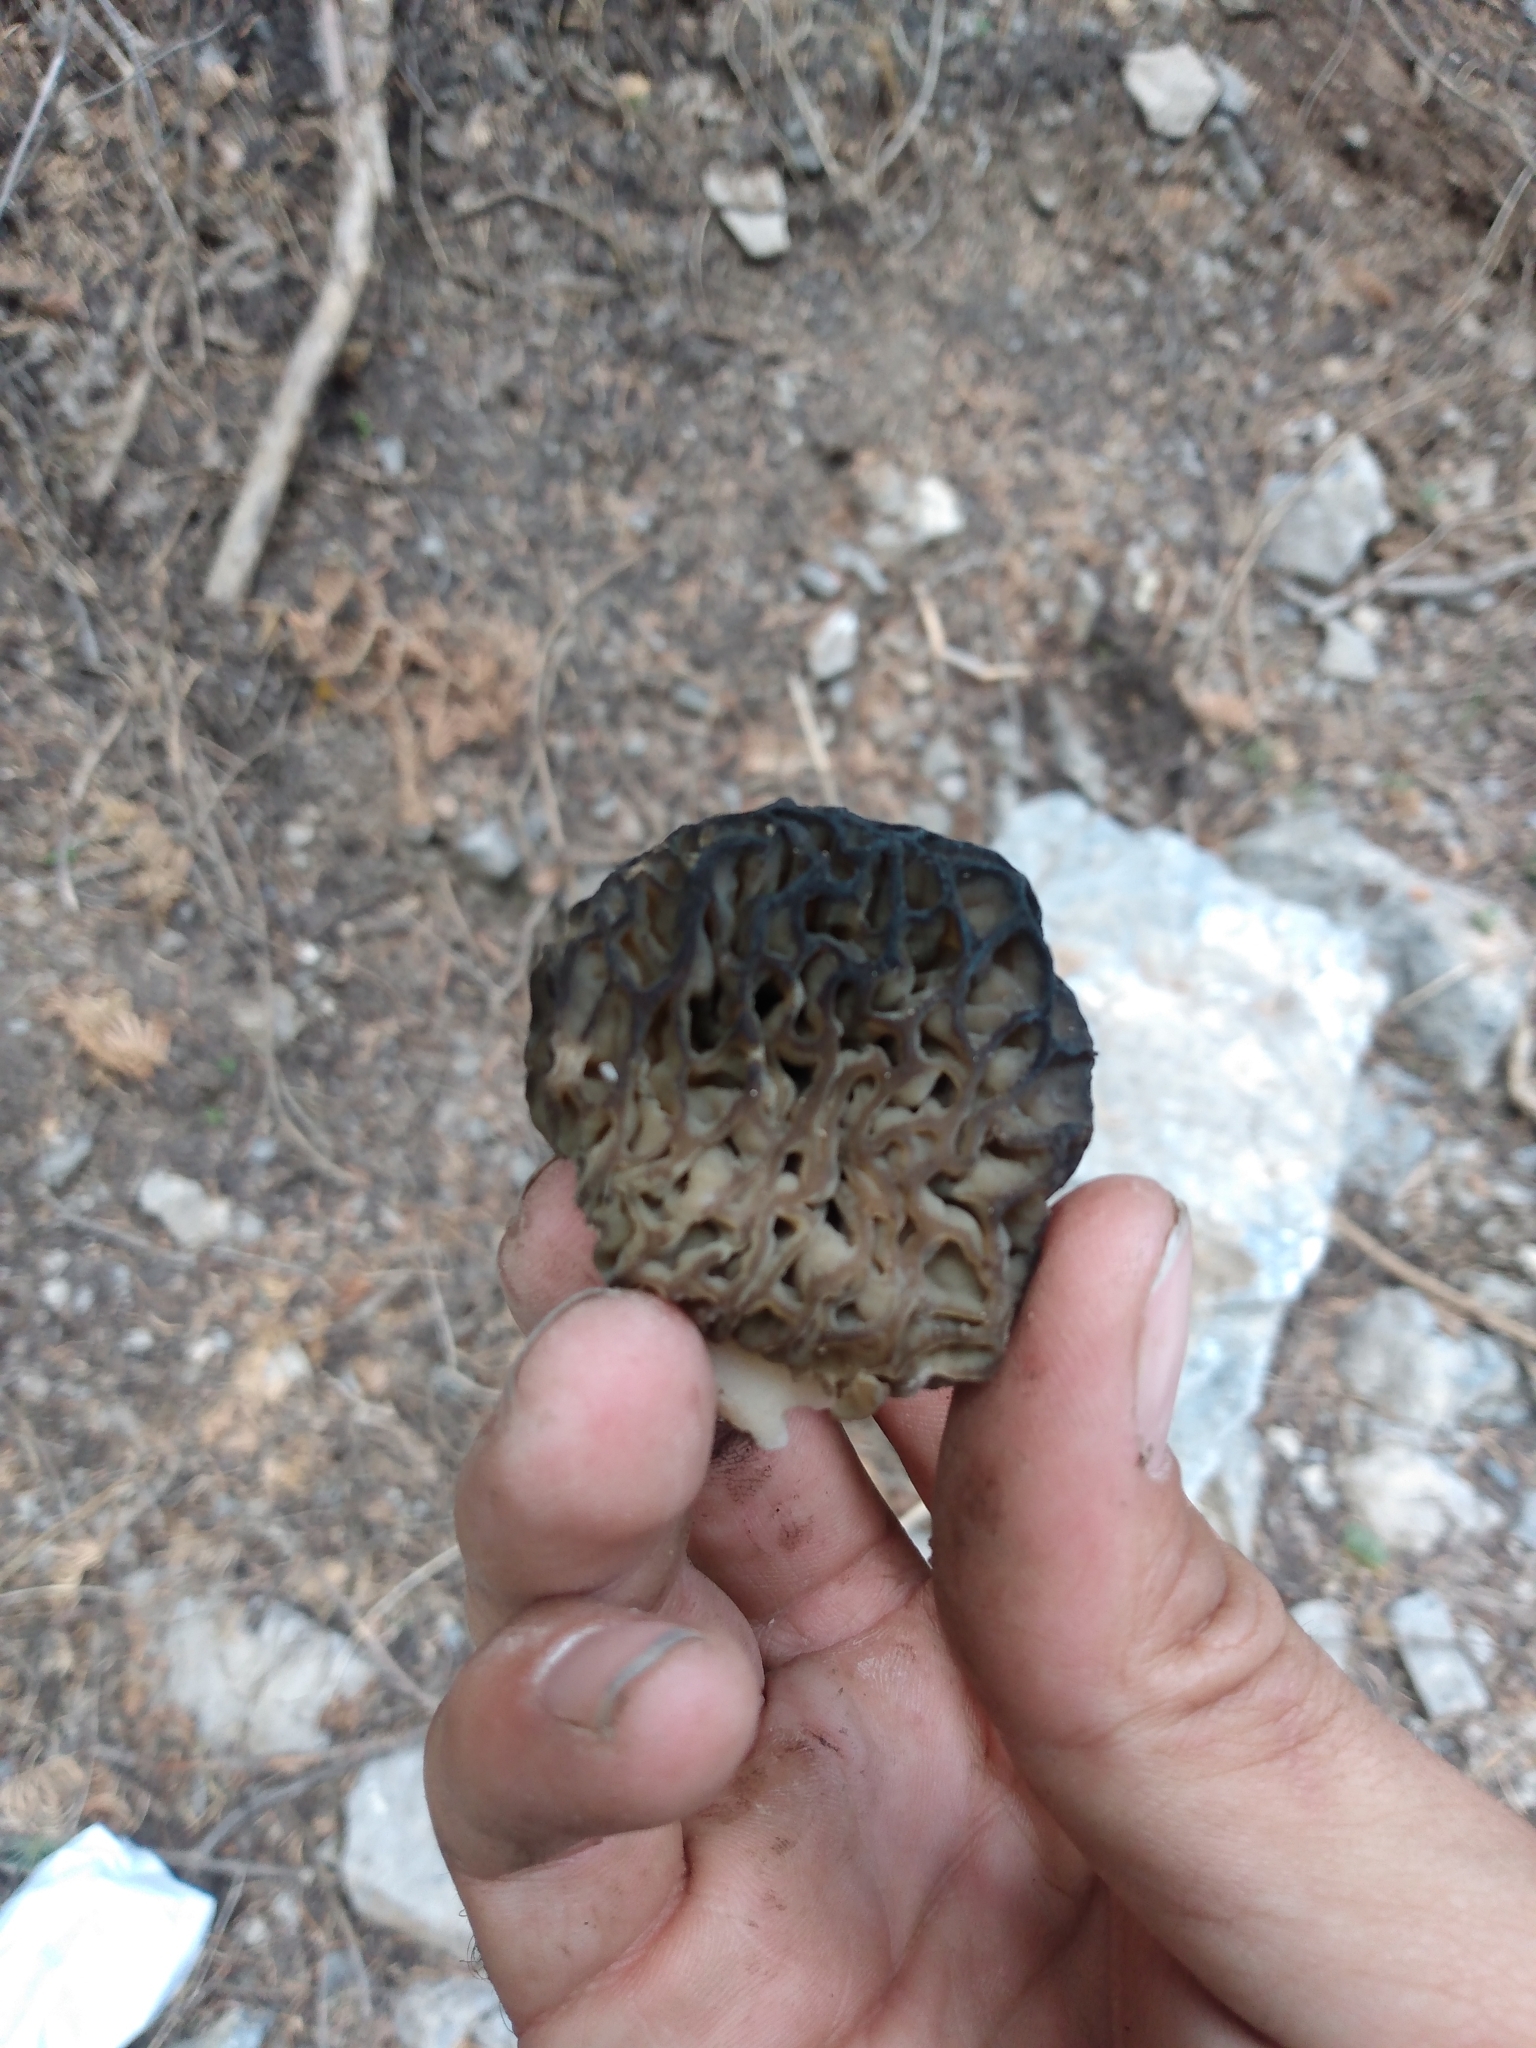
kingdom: Fungi
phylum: Ascomycota
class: Pezizomycetes
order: Pezizales
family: Morchellaceae
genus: Morchella
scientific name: Morchella snyderi
